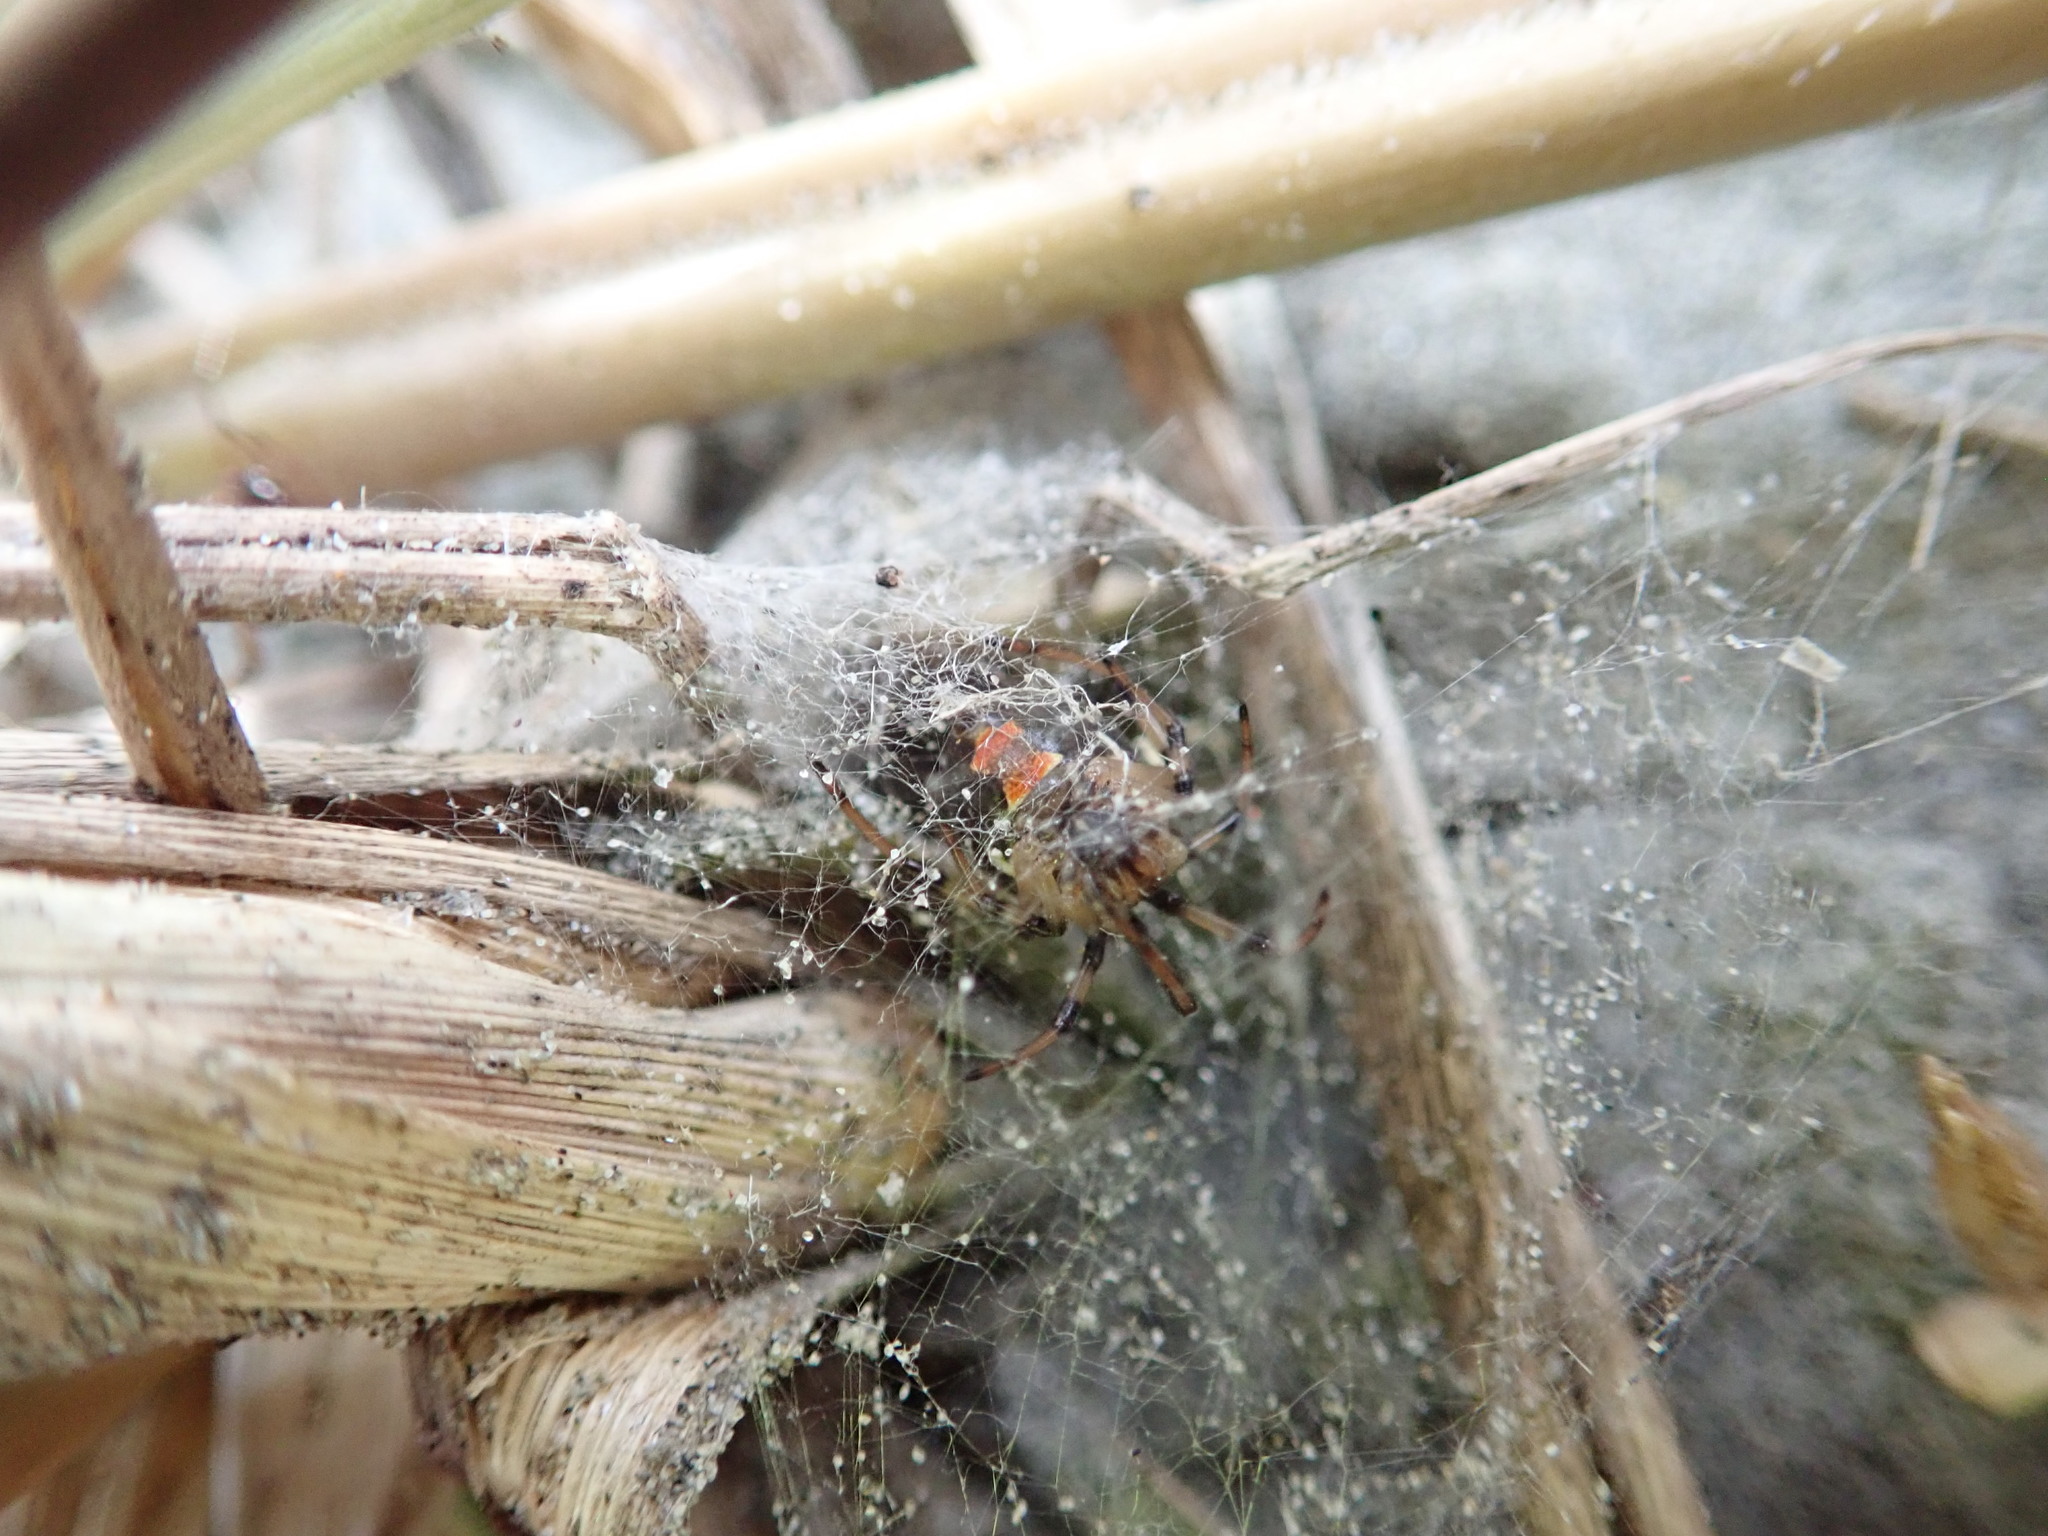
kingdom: Animalia
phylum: Arthropoda
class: Arachnida
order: Araneae
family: Theridiidae
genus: Latrodectus
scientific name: Latrodectus katipo
